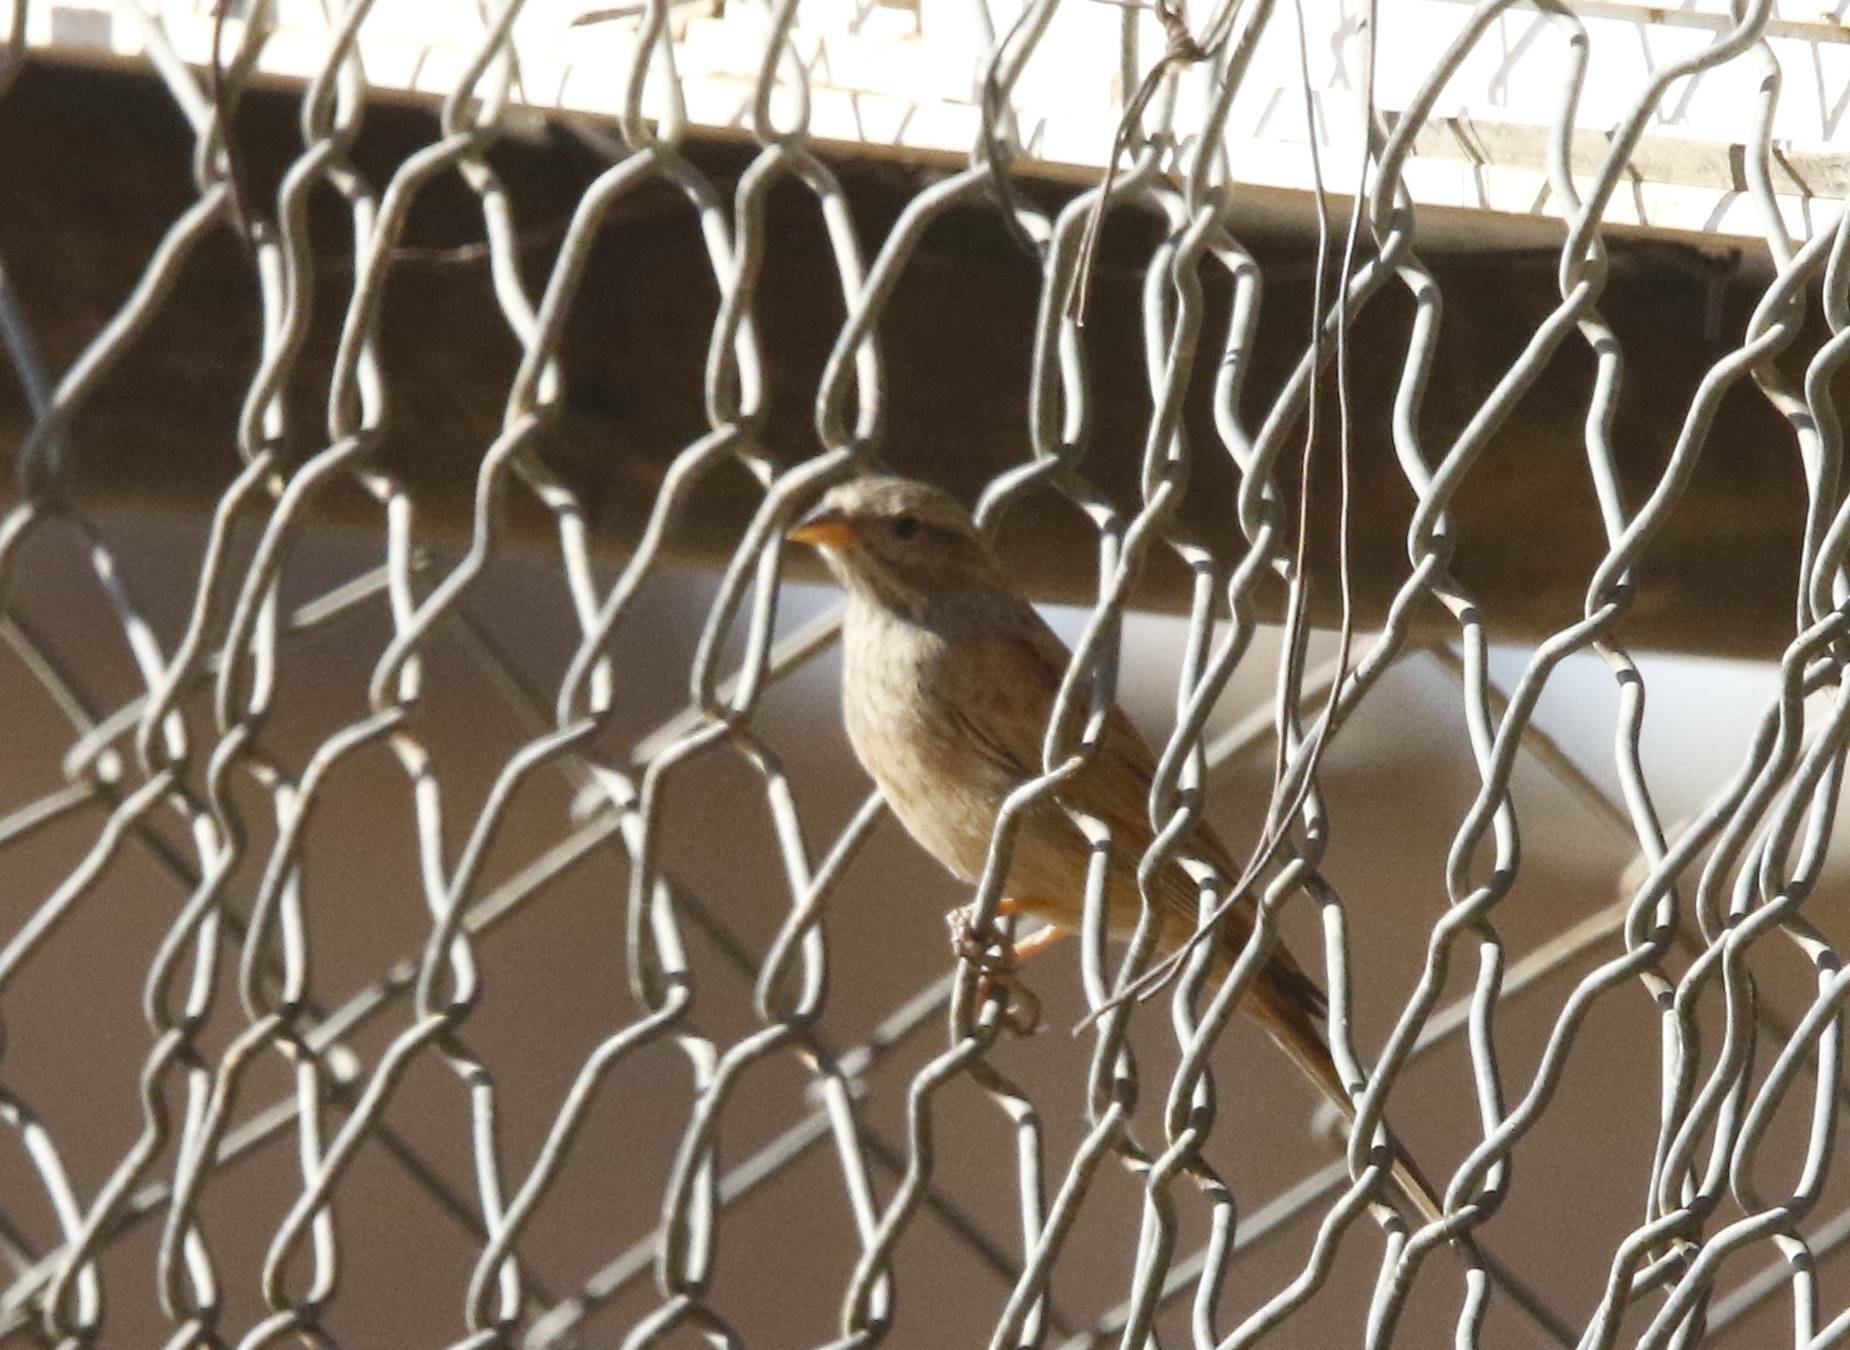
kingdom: Animalia
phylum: Chordata
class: Aves
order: Passeriformes
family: Emberizidae
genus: Emberiza
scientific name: Emberiza sahari
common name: House bunting
